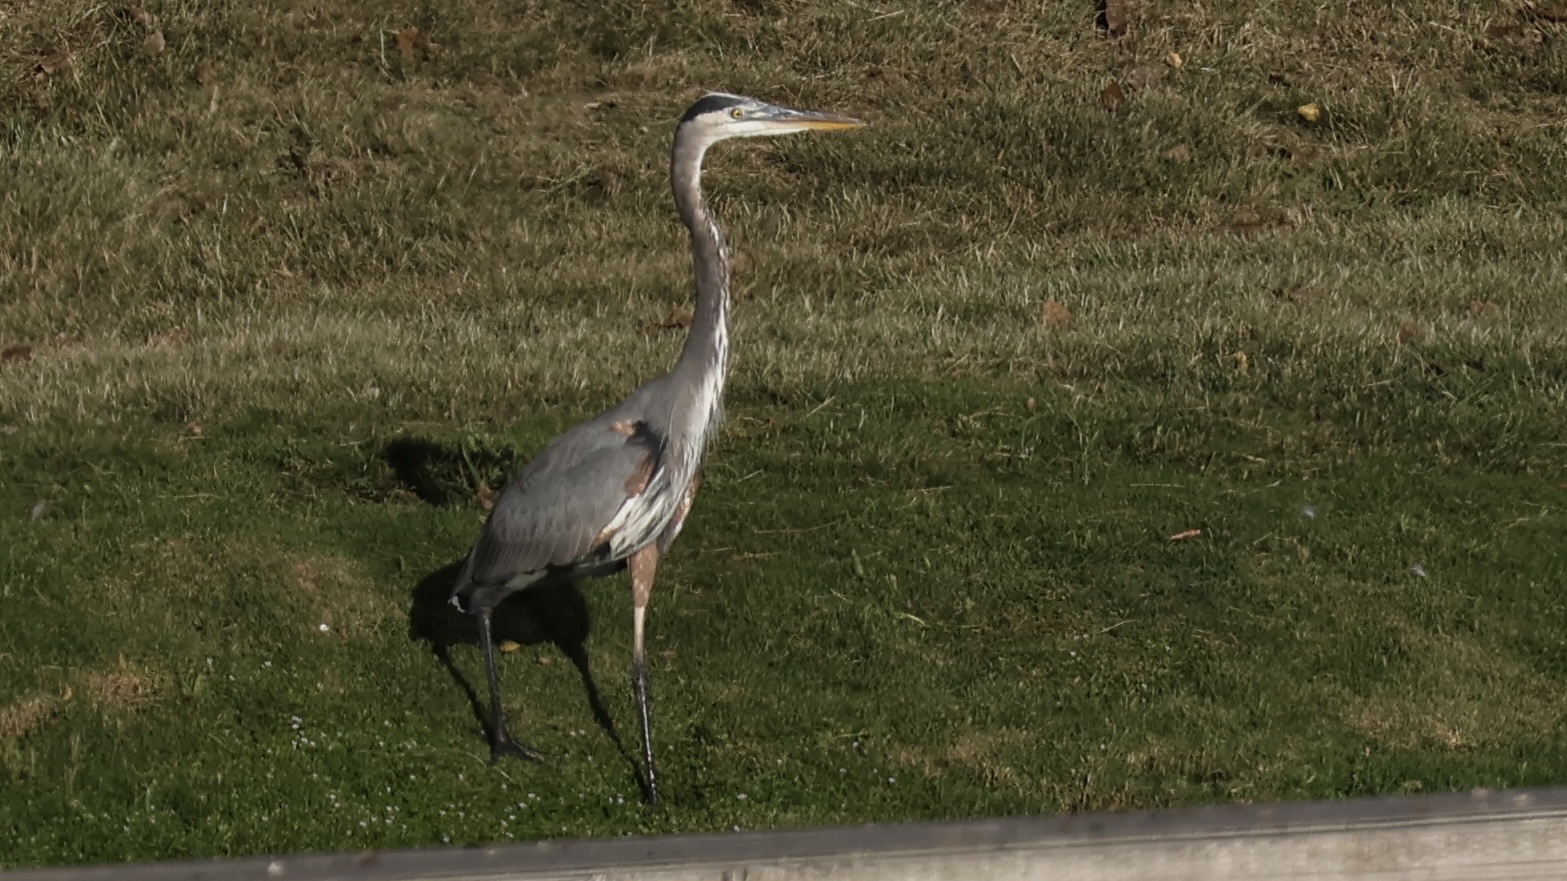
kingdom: Animalia
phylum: Chordata
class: Aves
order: Pelecaniformes
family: Ardeidae
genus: Ardea
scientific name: Ardea herodias
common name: Great blue heron
